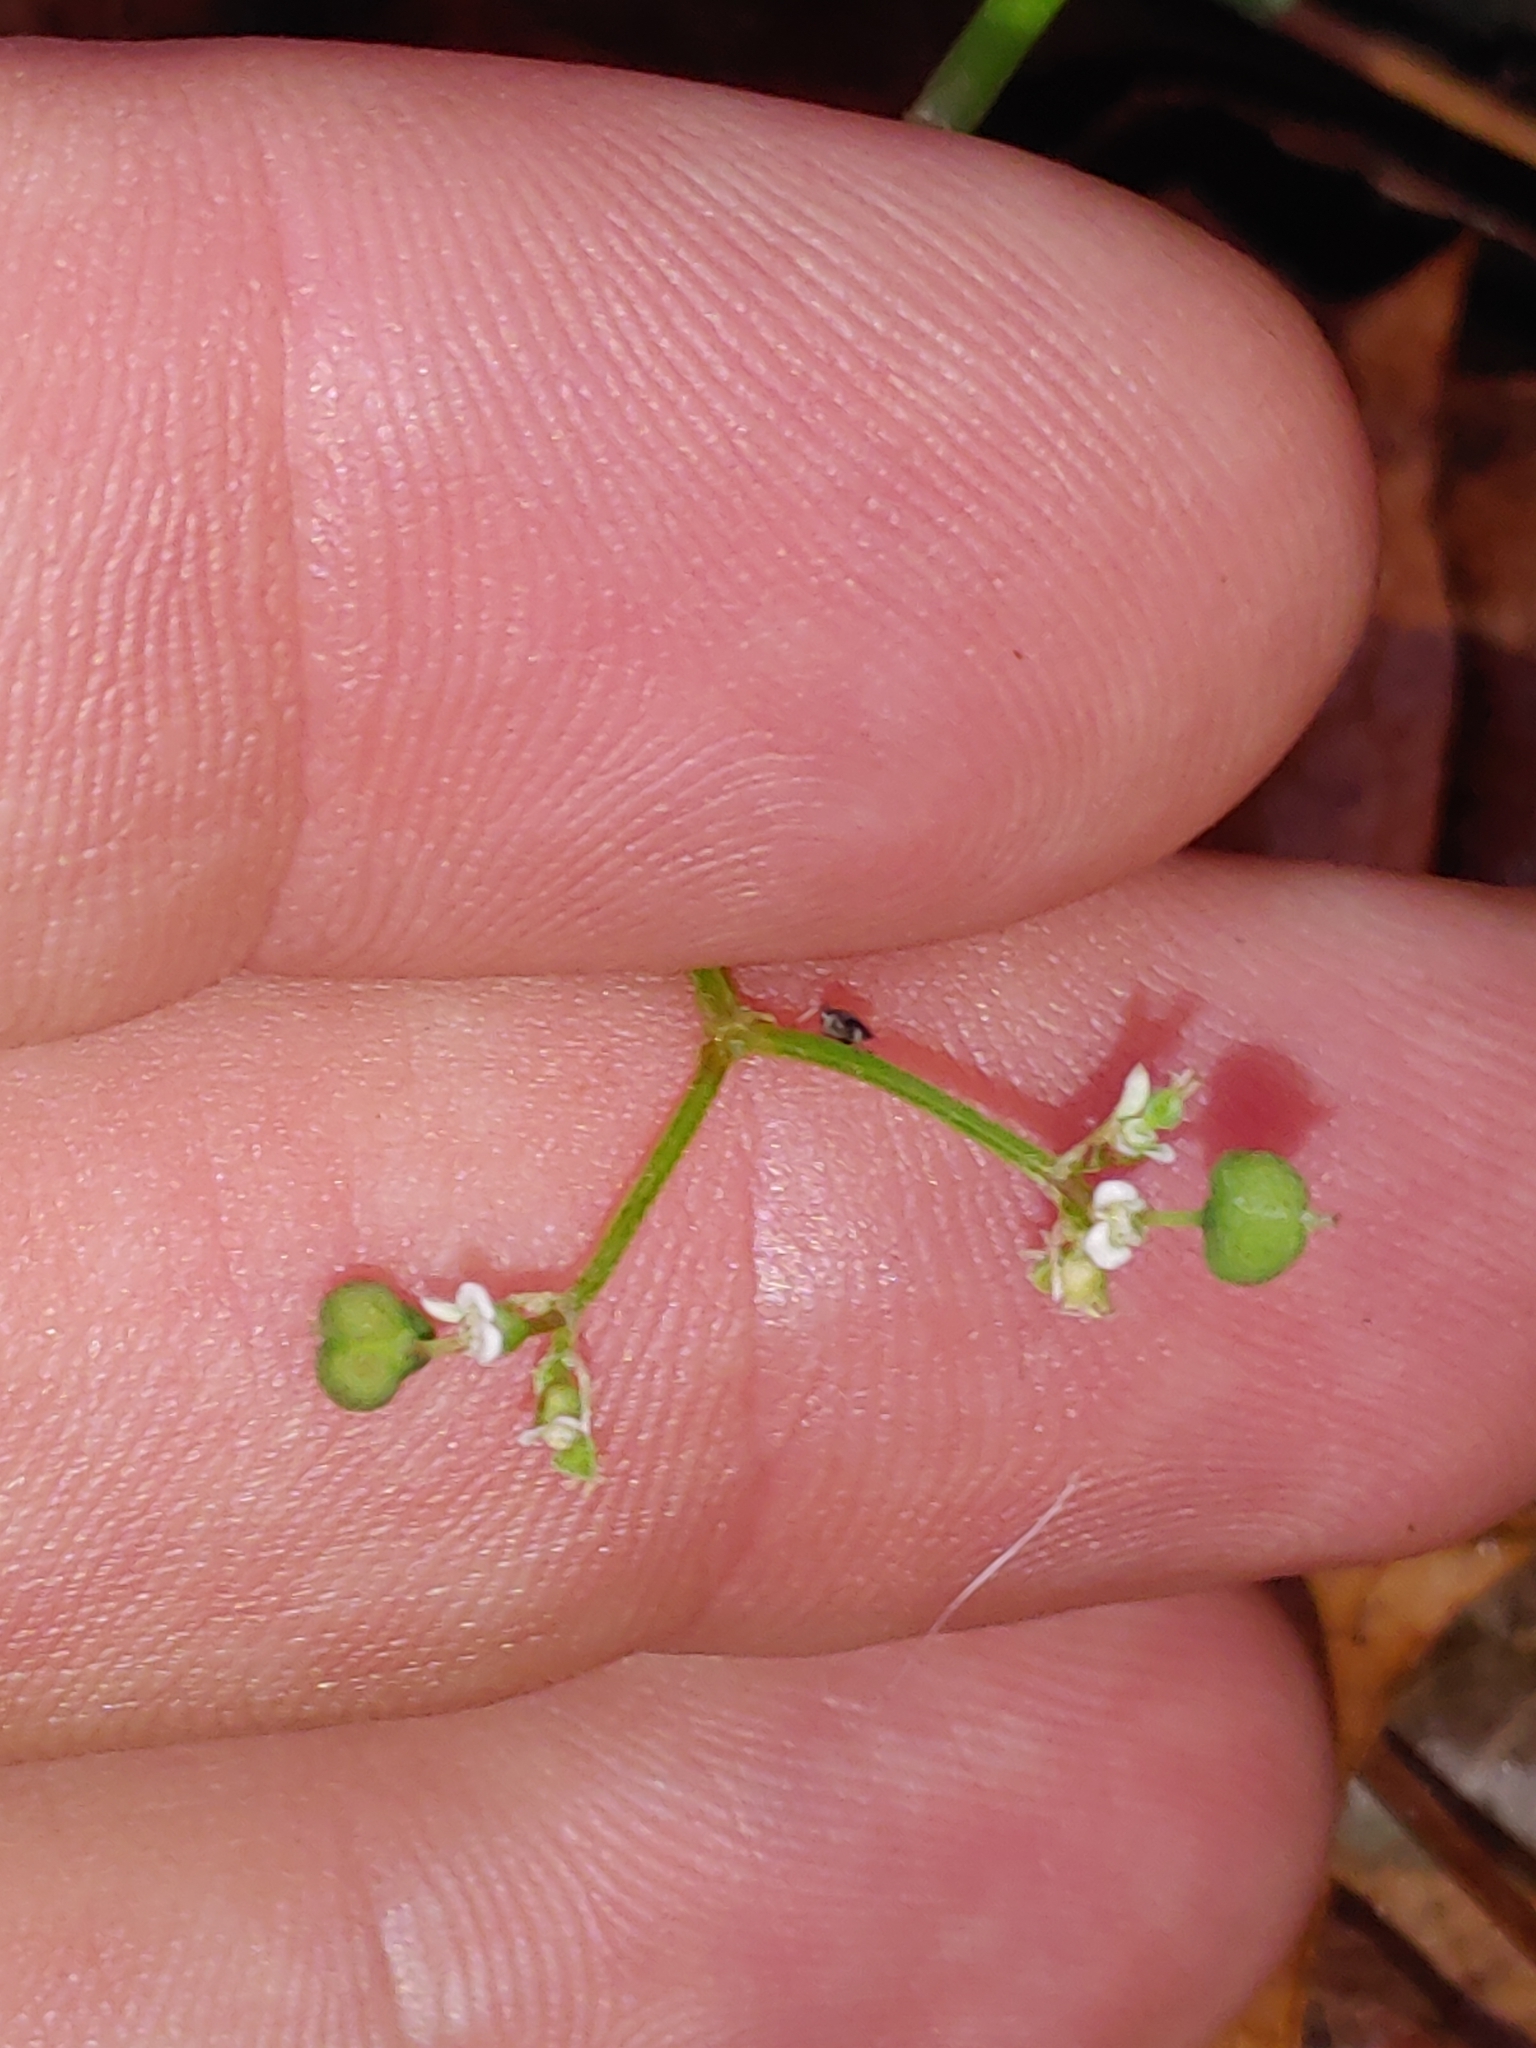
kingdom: Plantae
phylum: Tracheophyta
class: Magnoliopsida
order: Malpighiales
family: Euphorbiaceae
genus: Euphorbia
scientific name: Euphorbia graminea
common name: Grassleaf spurge
